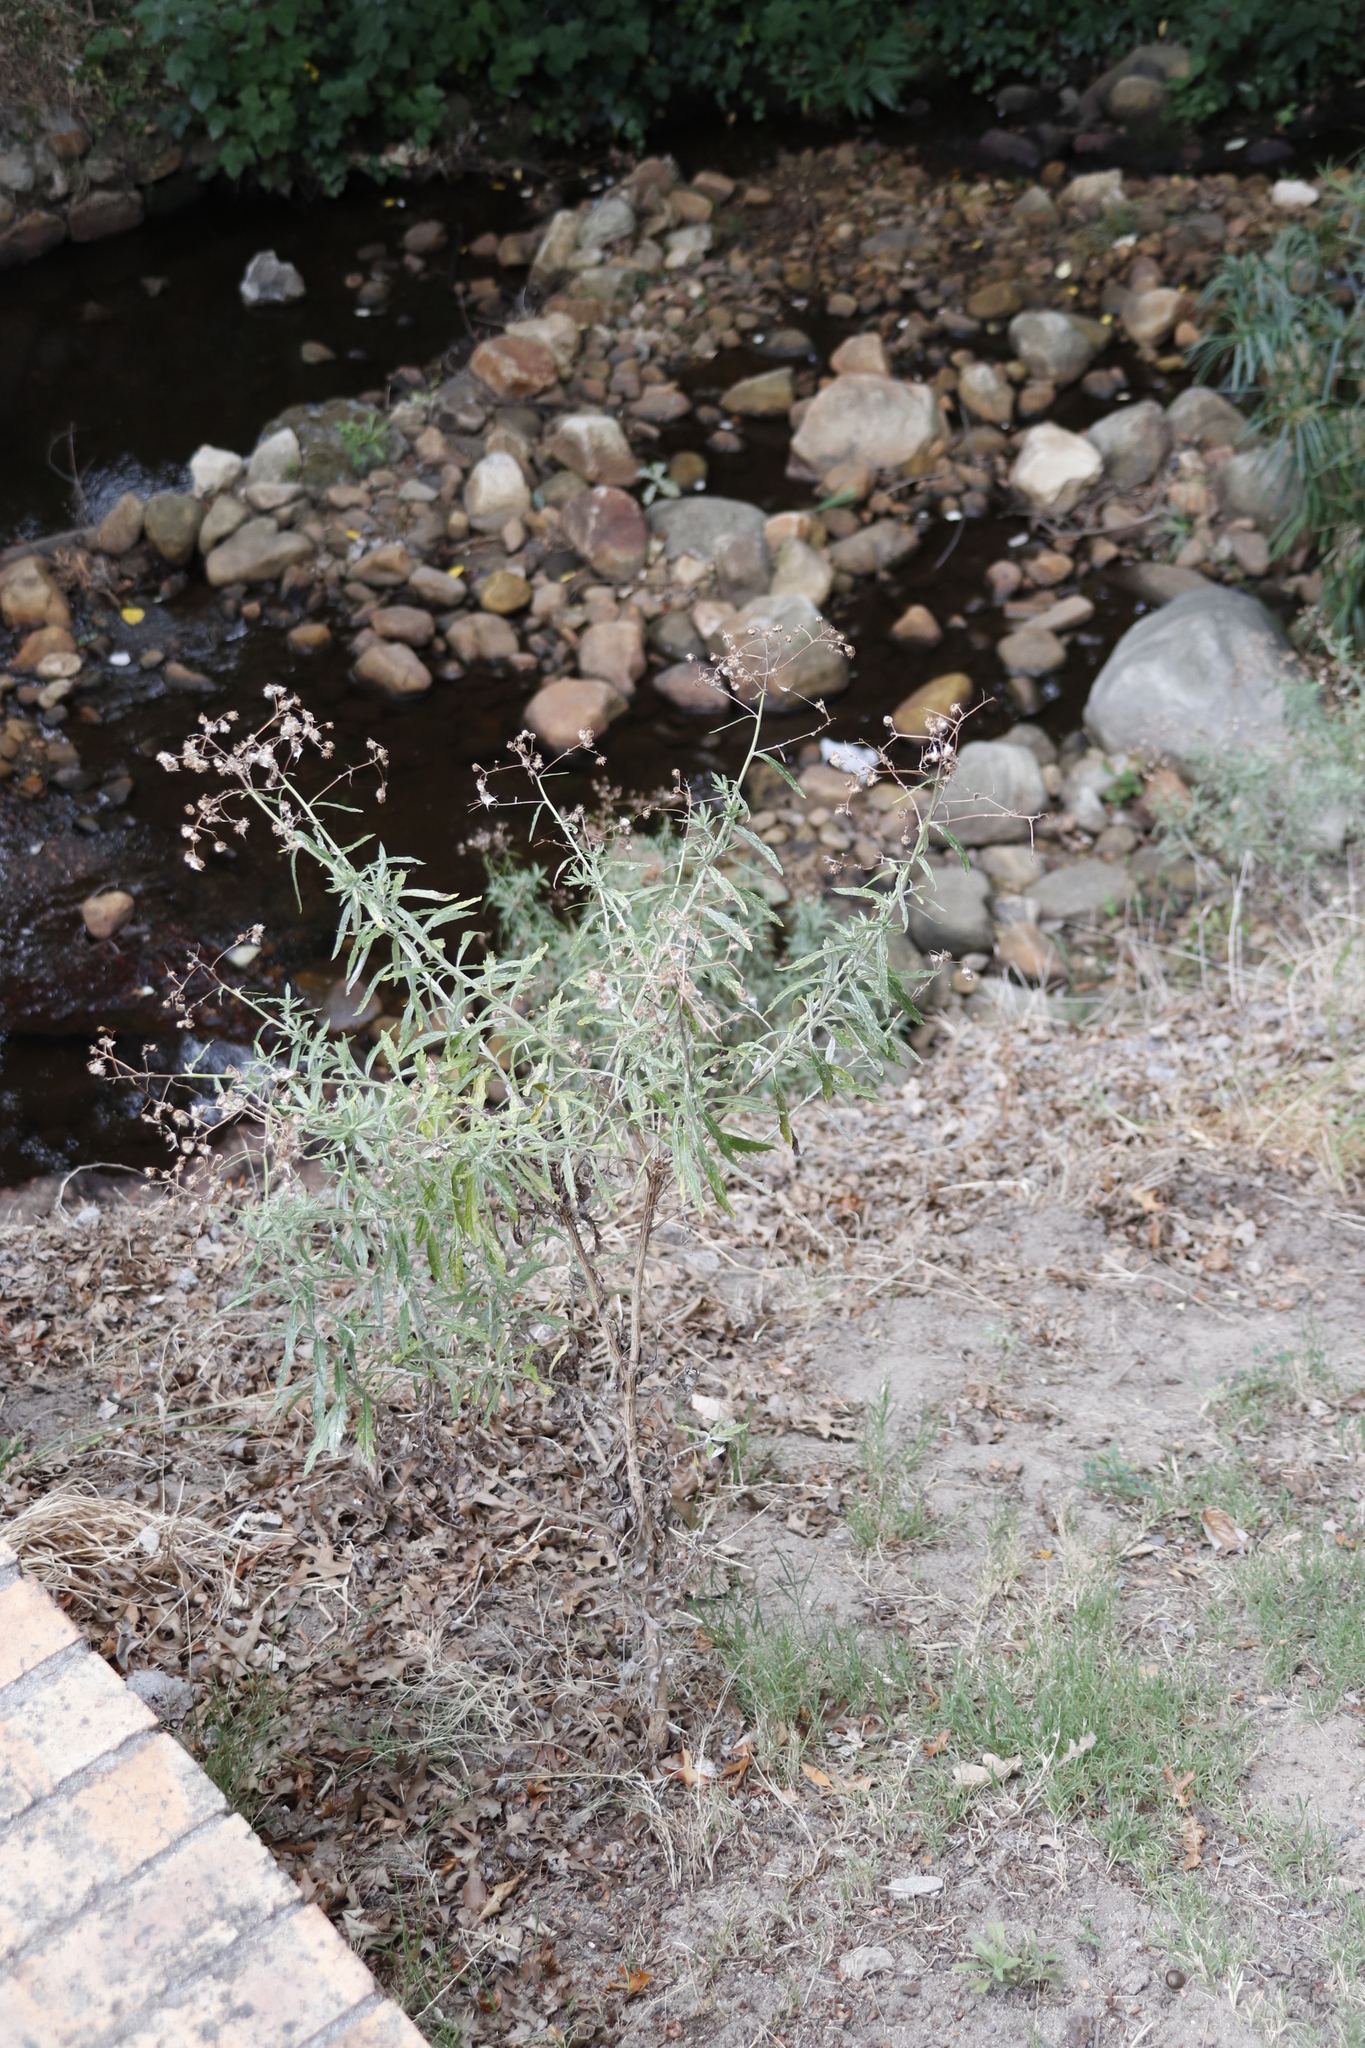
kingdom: Plantae
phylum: Tracheophyta
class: Magnoliopsida
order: Asterales
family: Asteraceae
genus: Senecio
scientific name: Senecio pterophorus
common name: Shoddy ragwort
